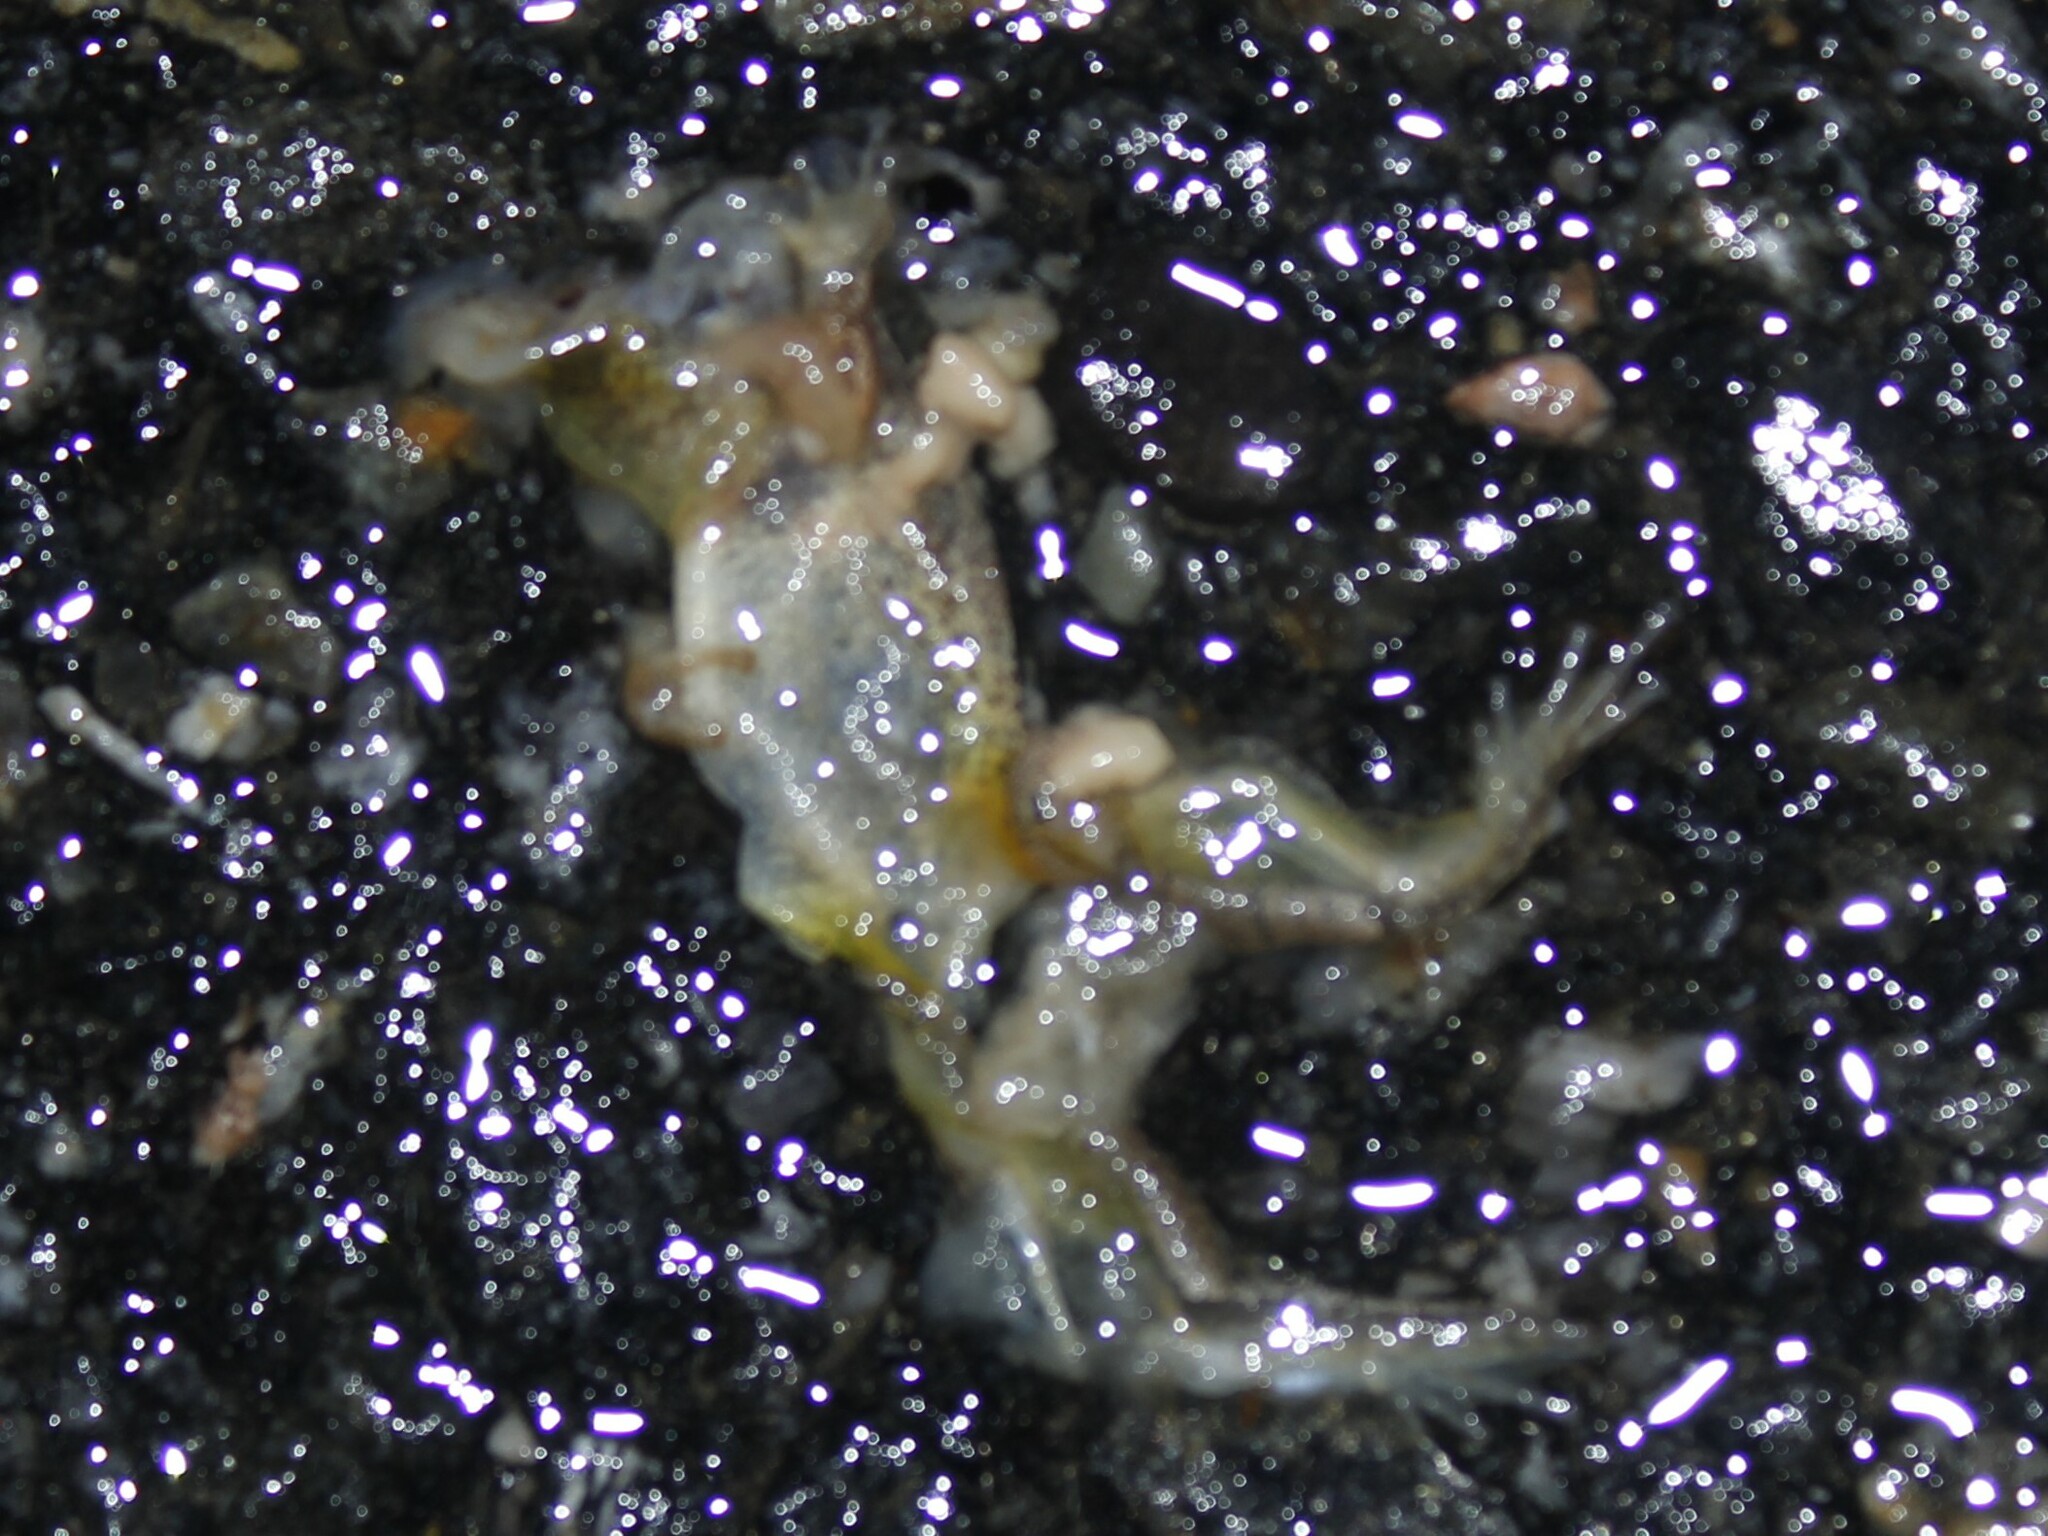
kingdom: Animalia
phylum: Chordata
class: Amphibia
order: Anura
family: Hylidae
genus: Pseudacris
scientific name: Pseudacris crucifer
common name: Spring peeper
